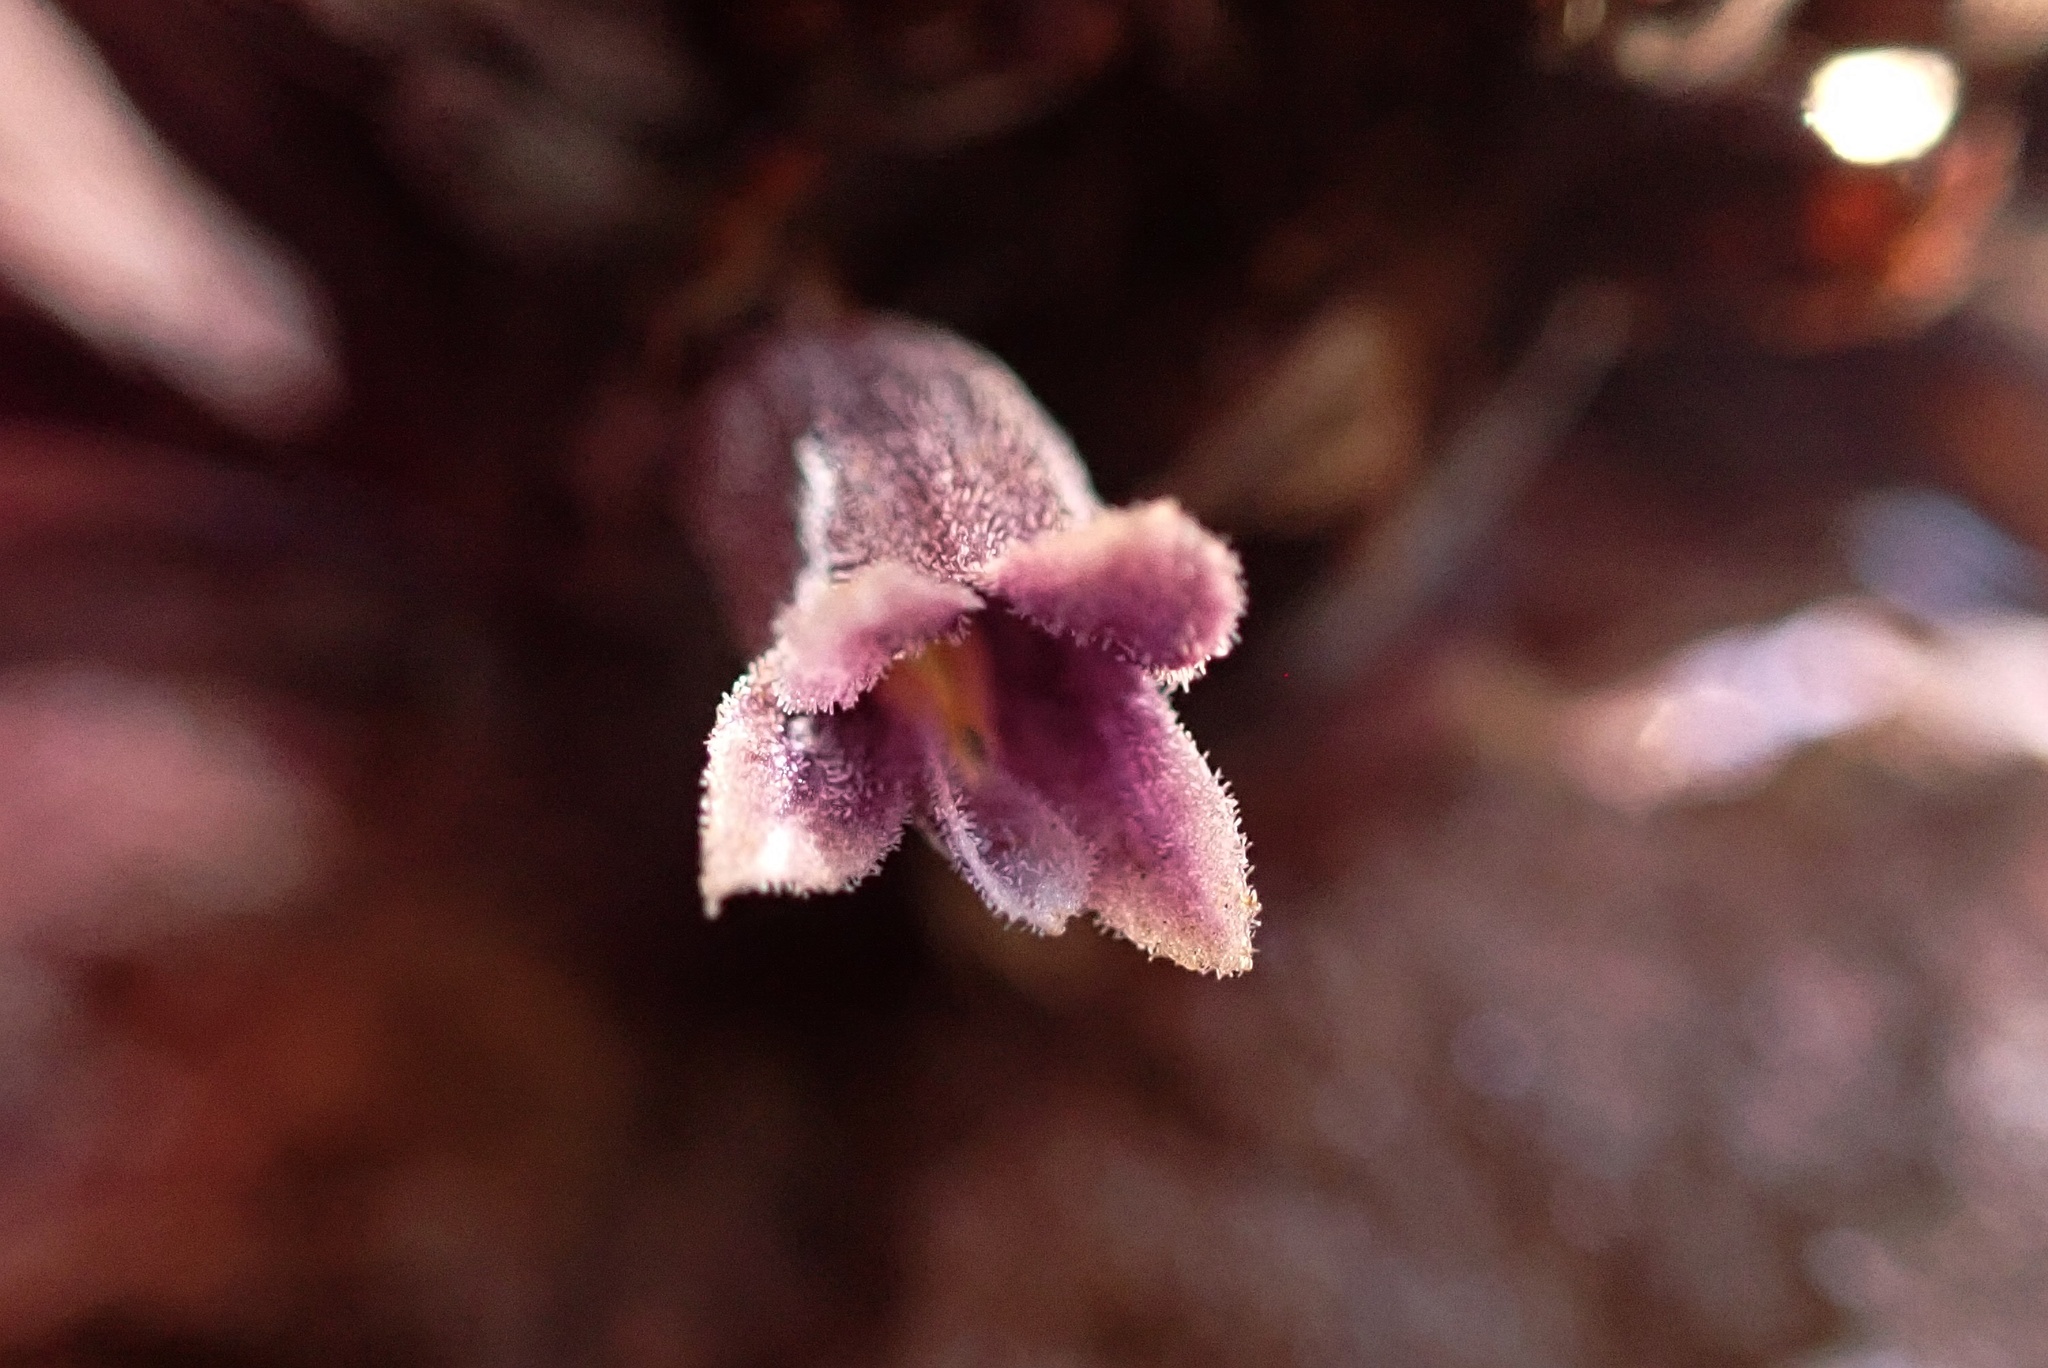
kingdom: Plantae
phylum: Tracheophyta
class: Magnoliopsida
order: Lamiales
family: Orobanchaceae
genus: Aphyllon
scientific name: Aphyllon tuberosum
